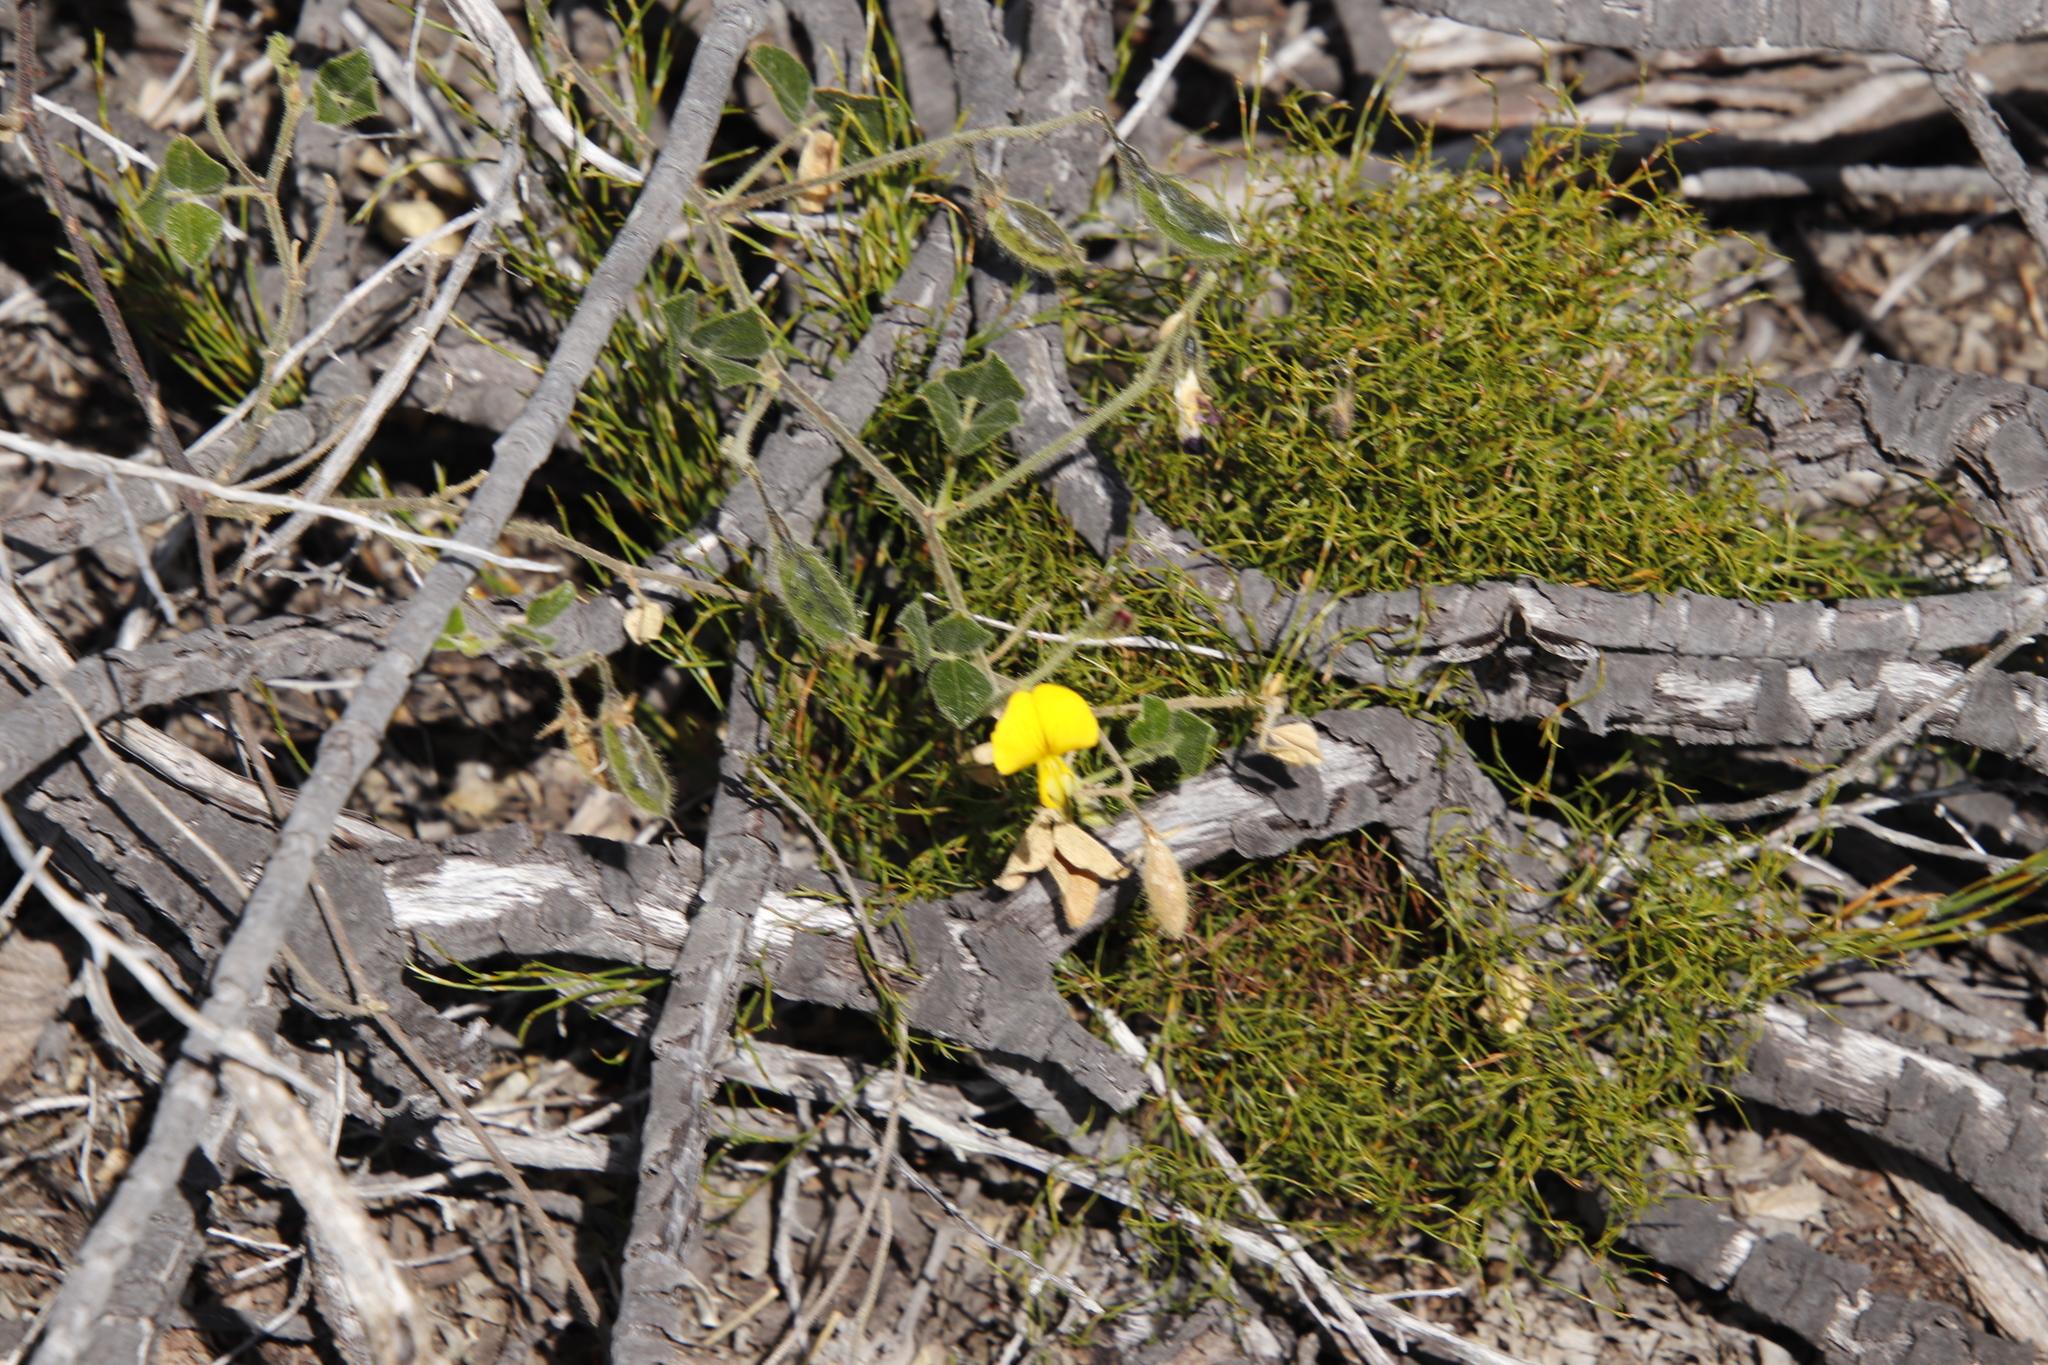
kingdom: Plantae
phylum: Tracheophyta
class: Magnoliopsida
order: Fabales
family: Fabaceae
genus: Bolusafra
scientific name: Bolusafra bituminosa
